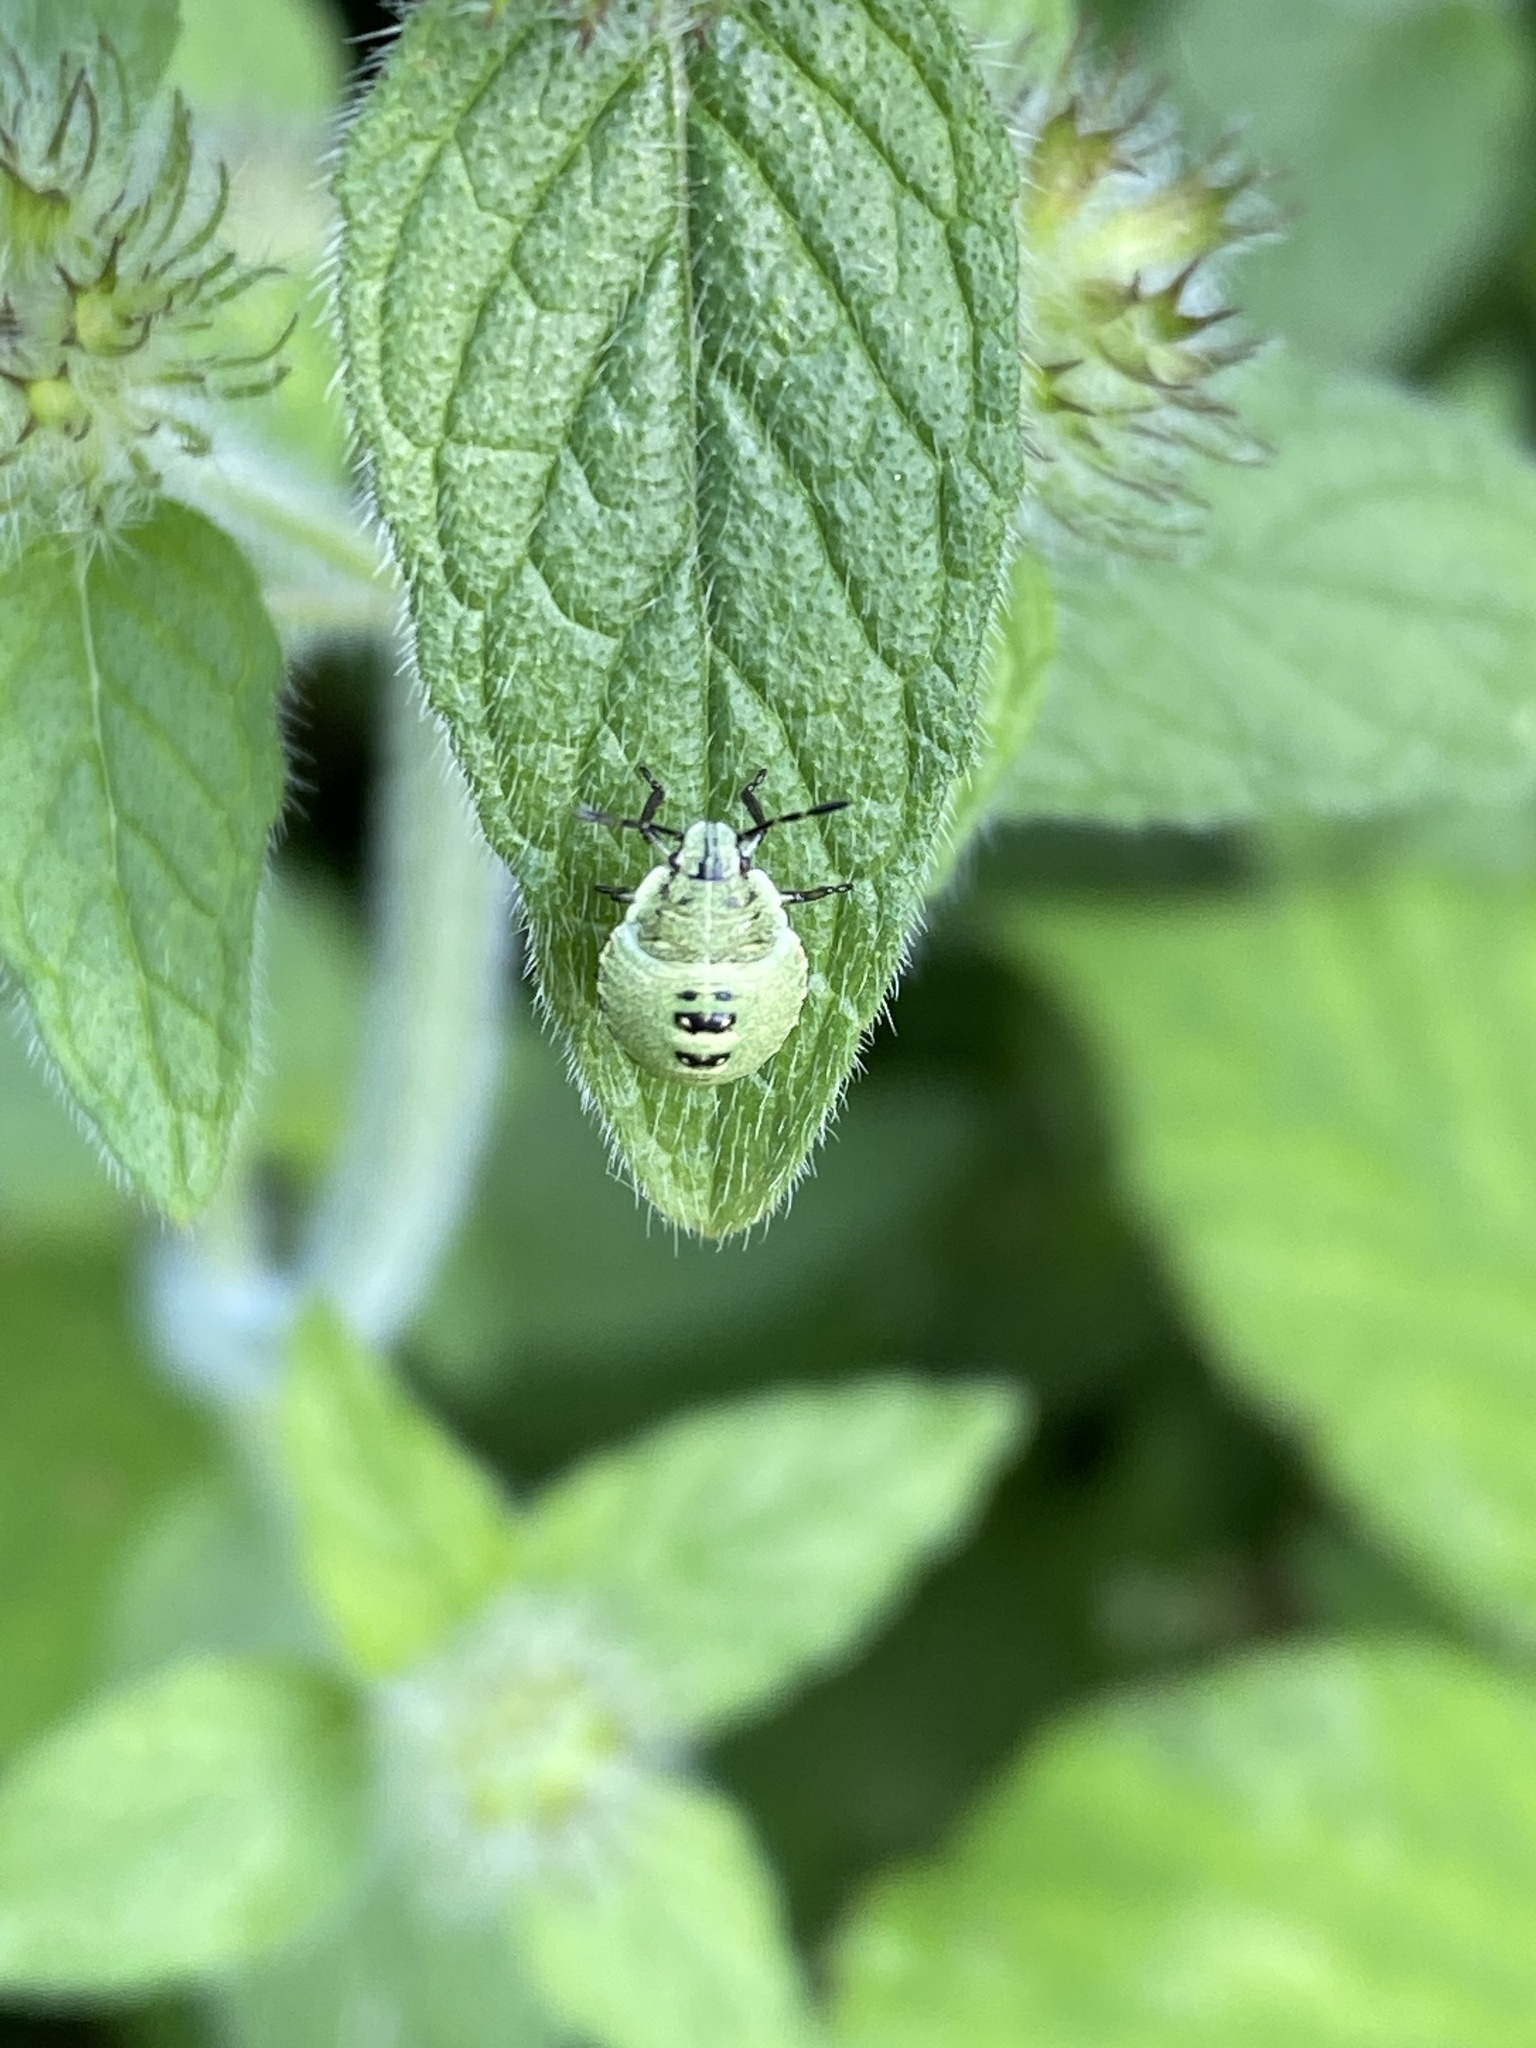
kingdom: Animalia
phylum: Arthropoda
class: Insecta
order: Hemiptera
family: Pentatomidae
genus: Palomena
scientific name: Palomena prasina
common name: Green shieldbug
